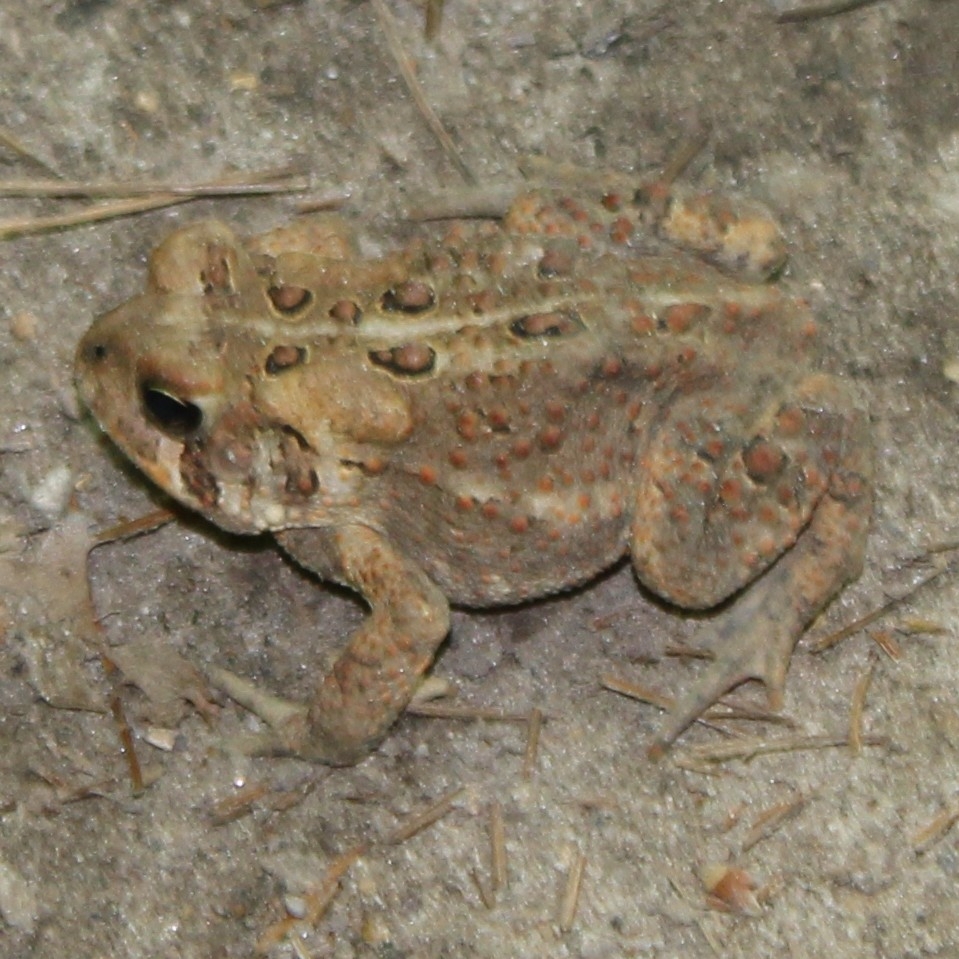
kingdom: Animalia
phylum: Chordata
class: Amphibia
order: Anura
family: Bufonidae
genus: Anaxyrus
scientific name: Anaxyrus americanus
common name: American toad
